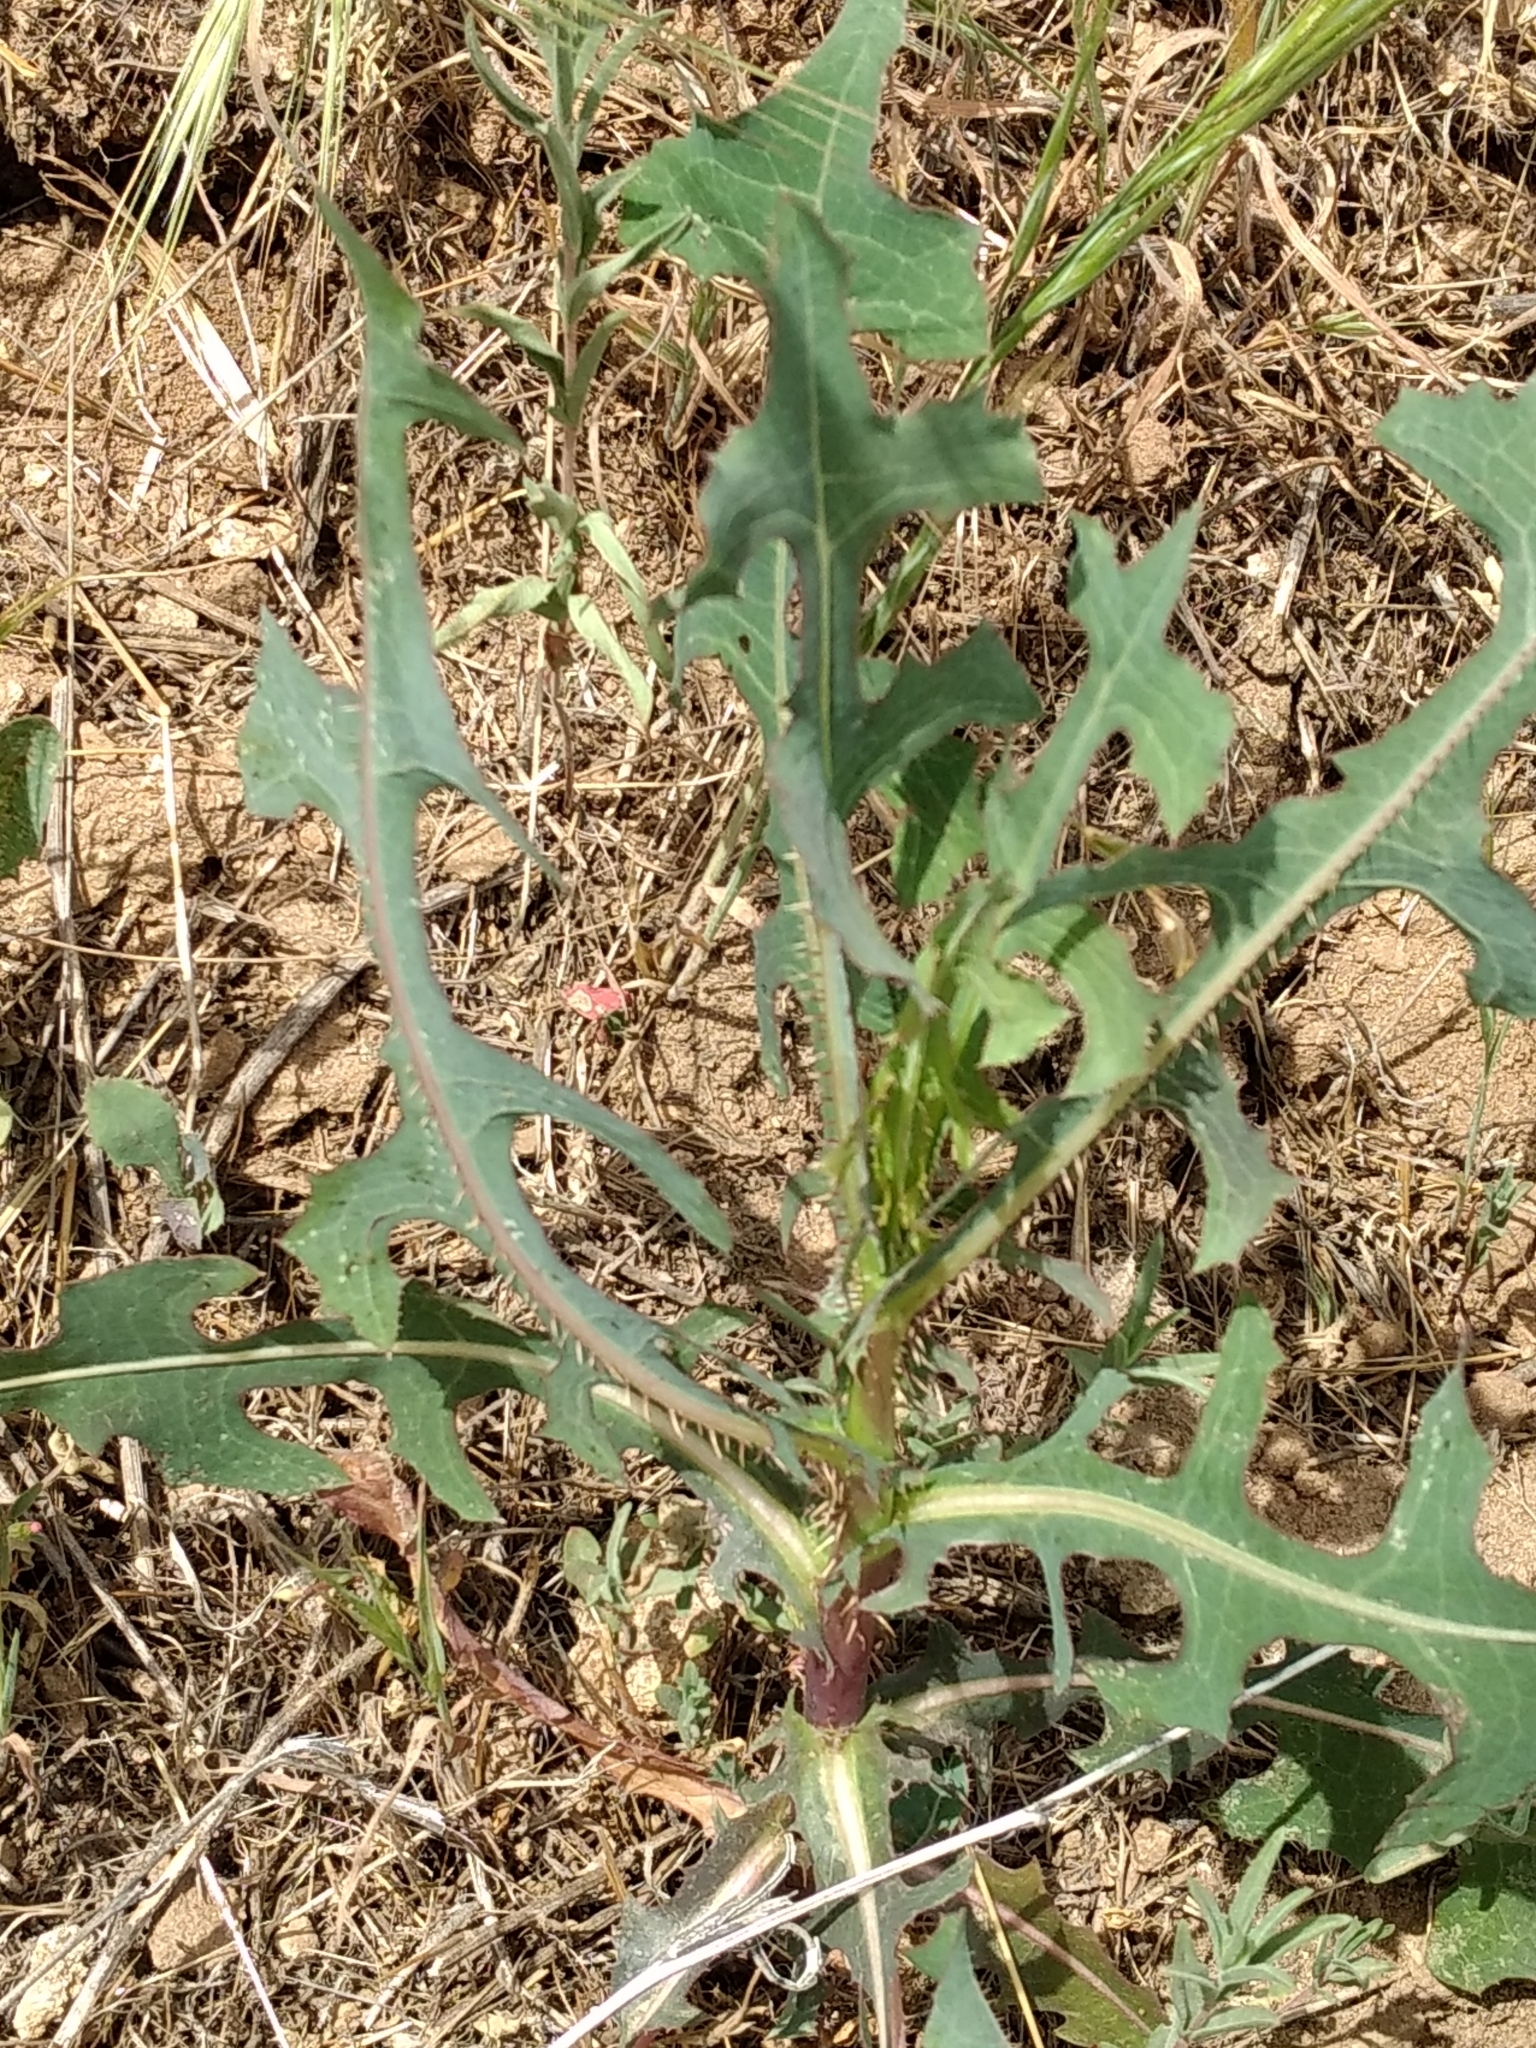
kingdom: Plantae
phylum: Tracheophyta
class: Magnoliopsida
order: Asterales
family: Asteraceae
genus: Lactuca
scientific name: Lactuca serriola
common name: Prickly lettuce
